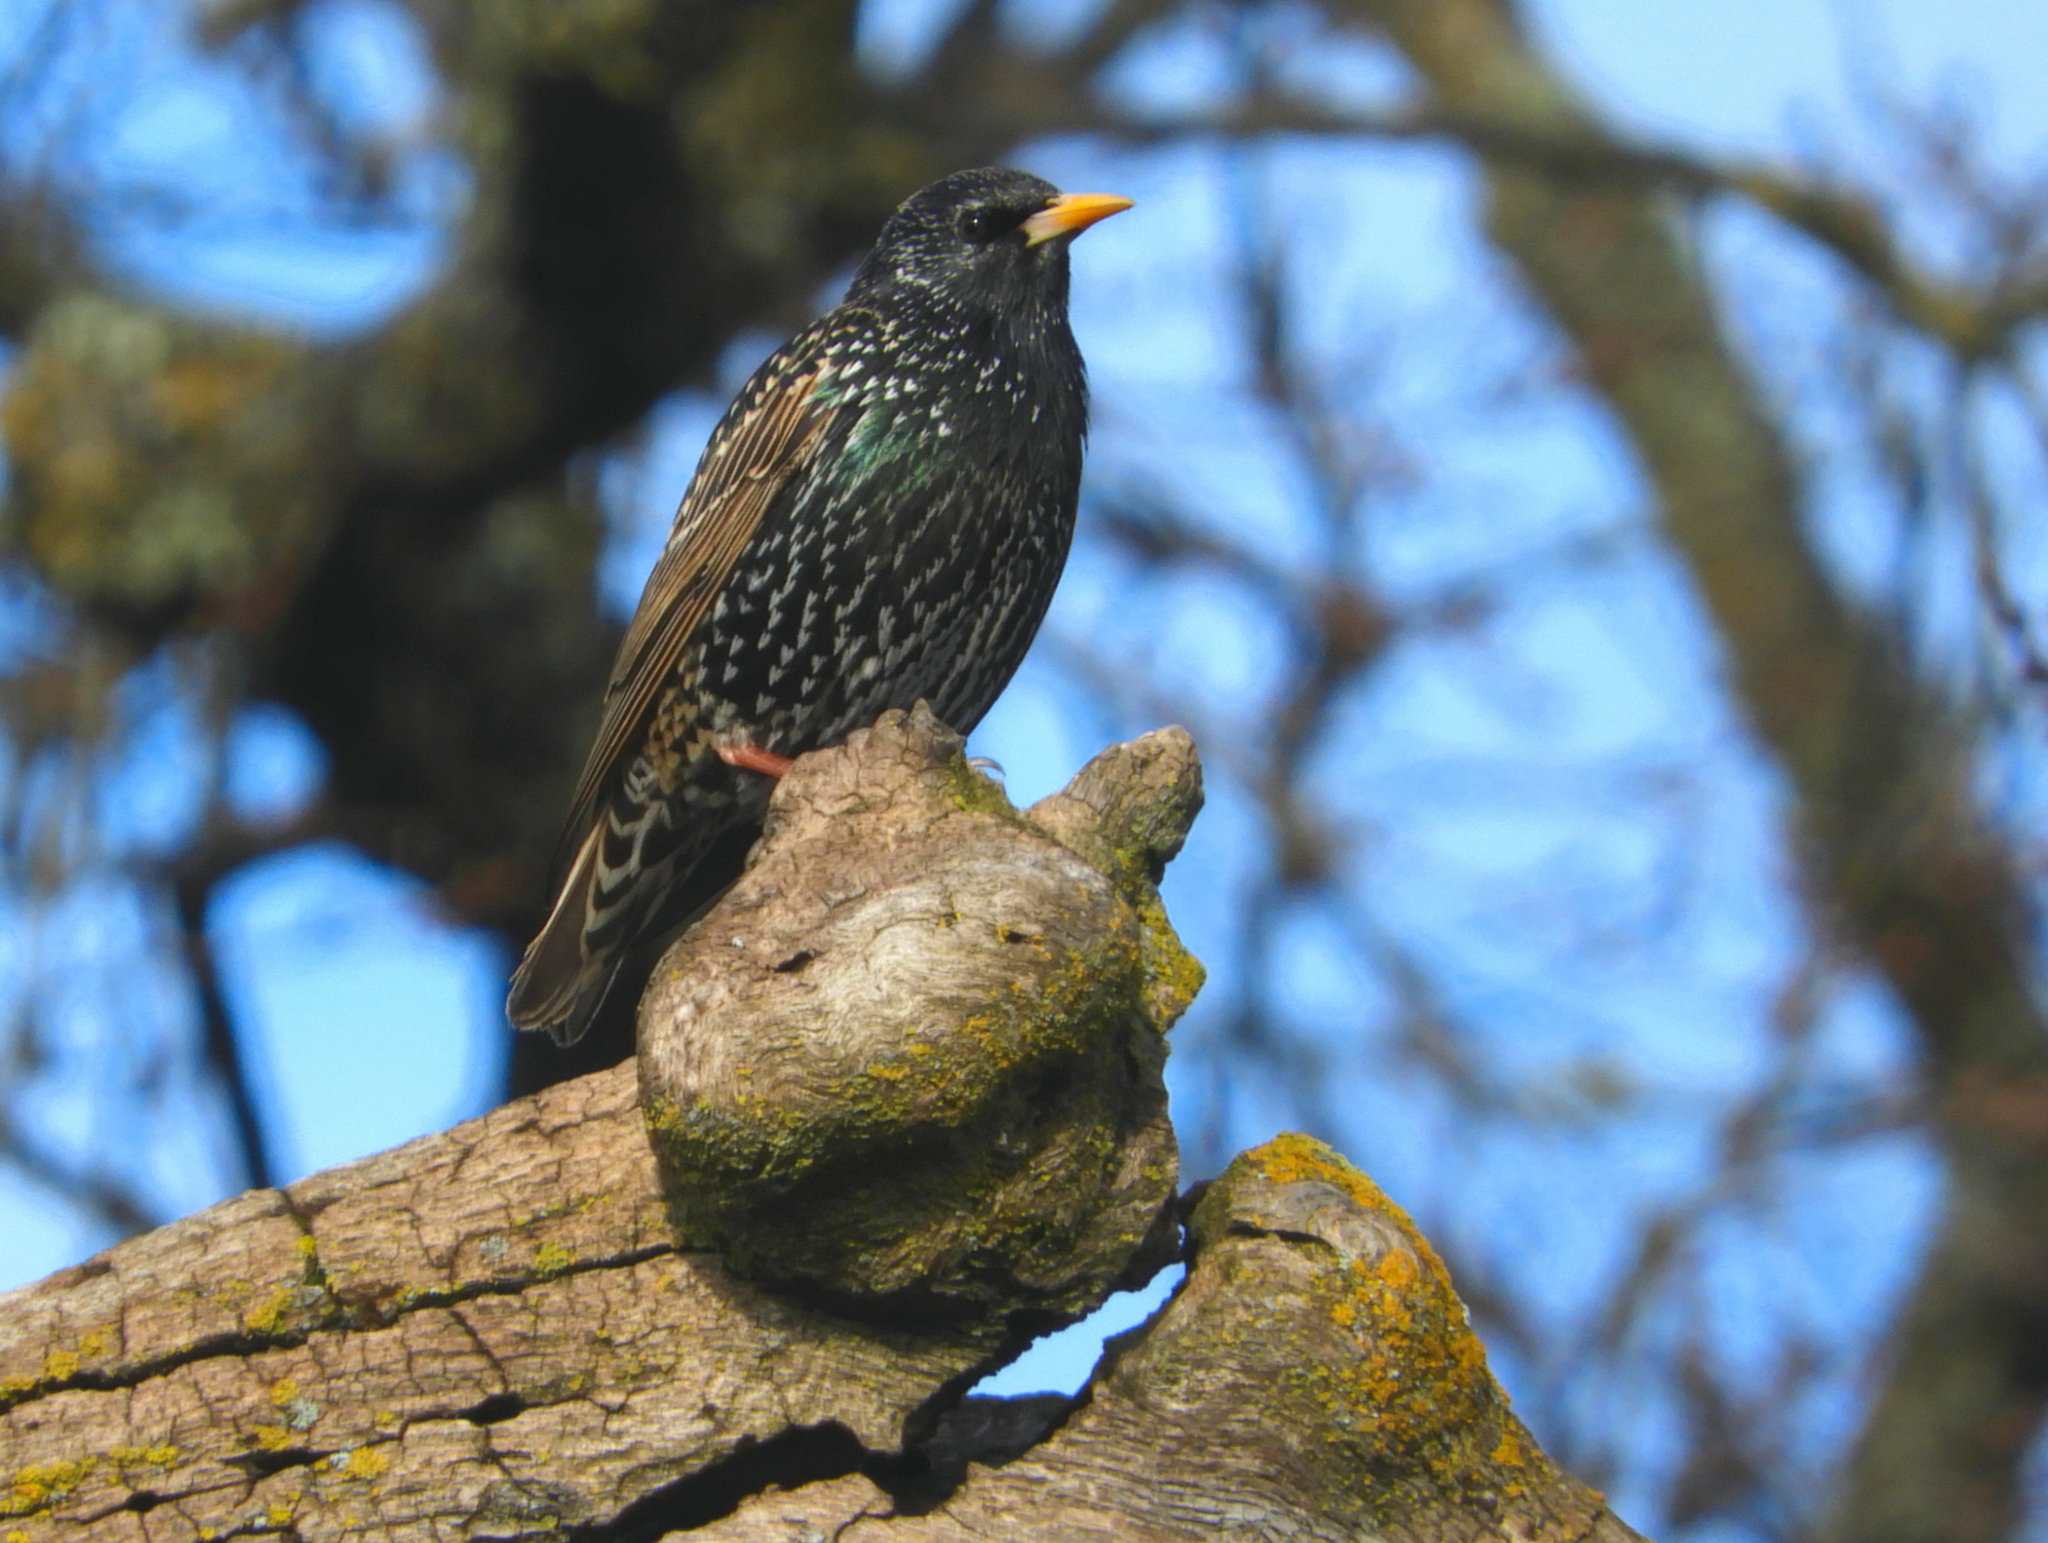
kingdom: Animalia
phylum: Chordata
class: Aves
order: Passeriformes
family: Sturnidae
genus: Sturnus
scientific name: Sturnus vulgaris
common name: Common starling
